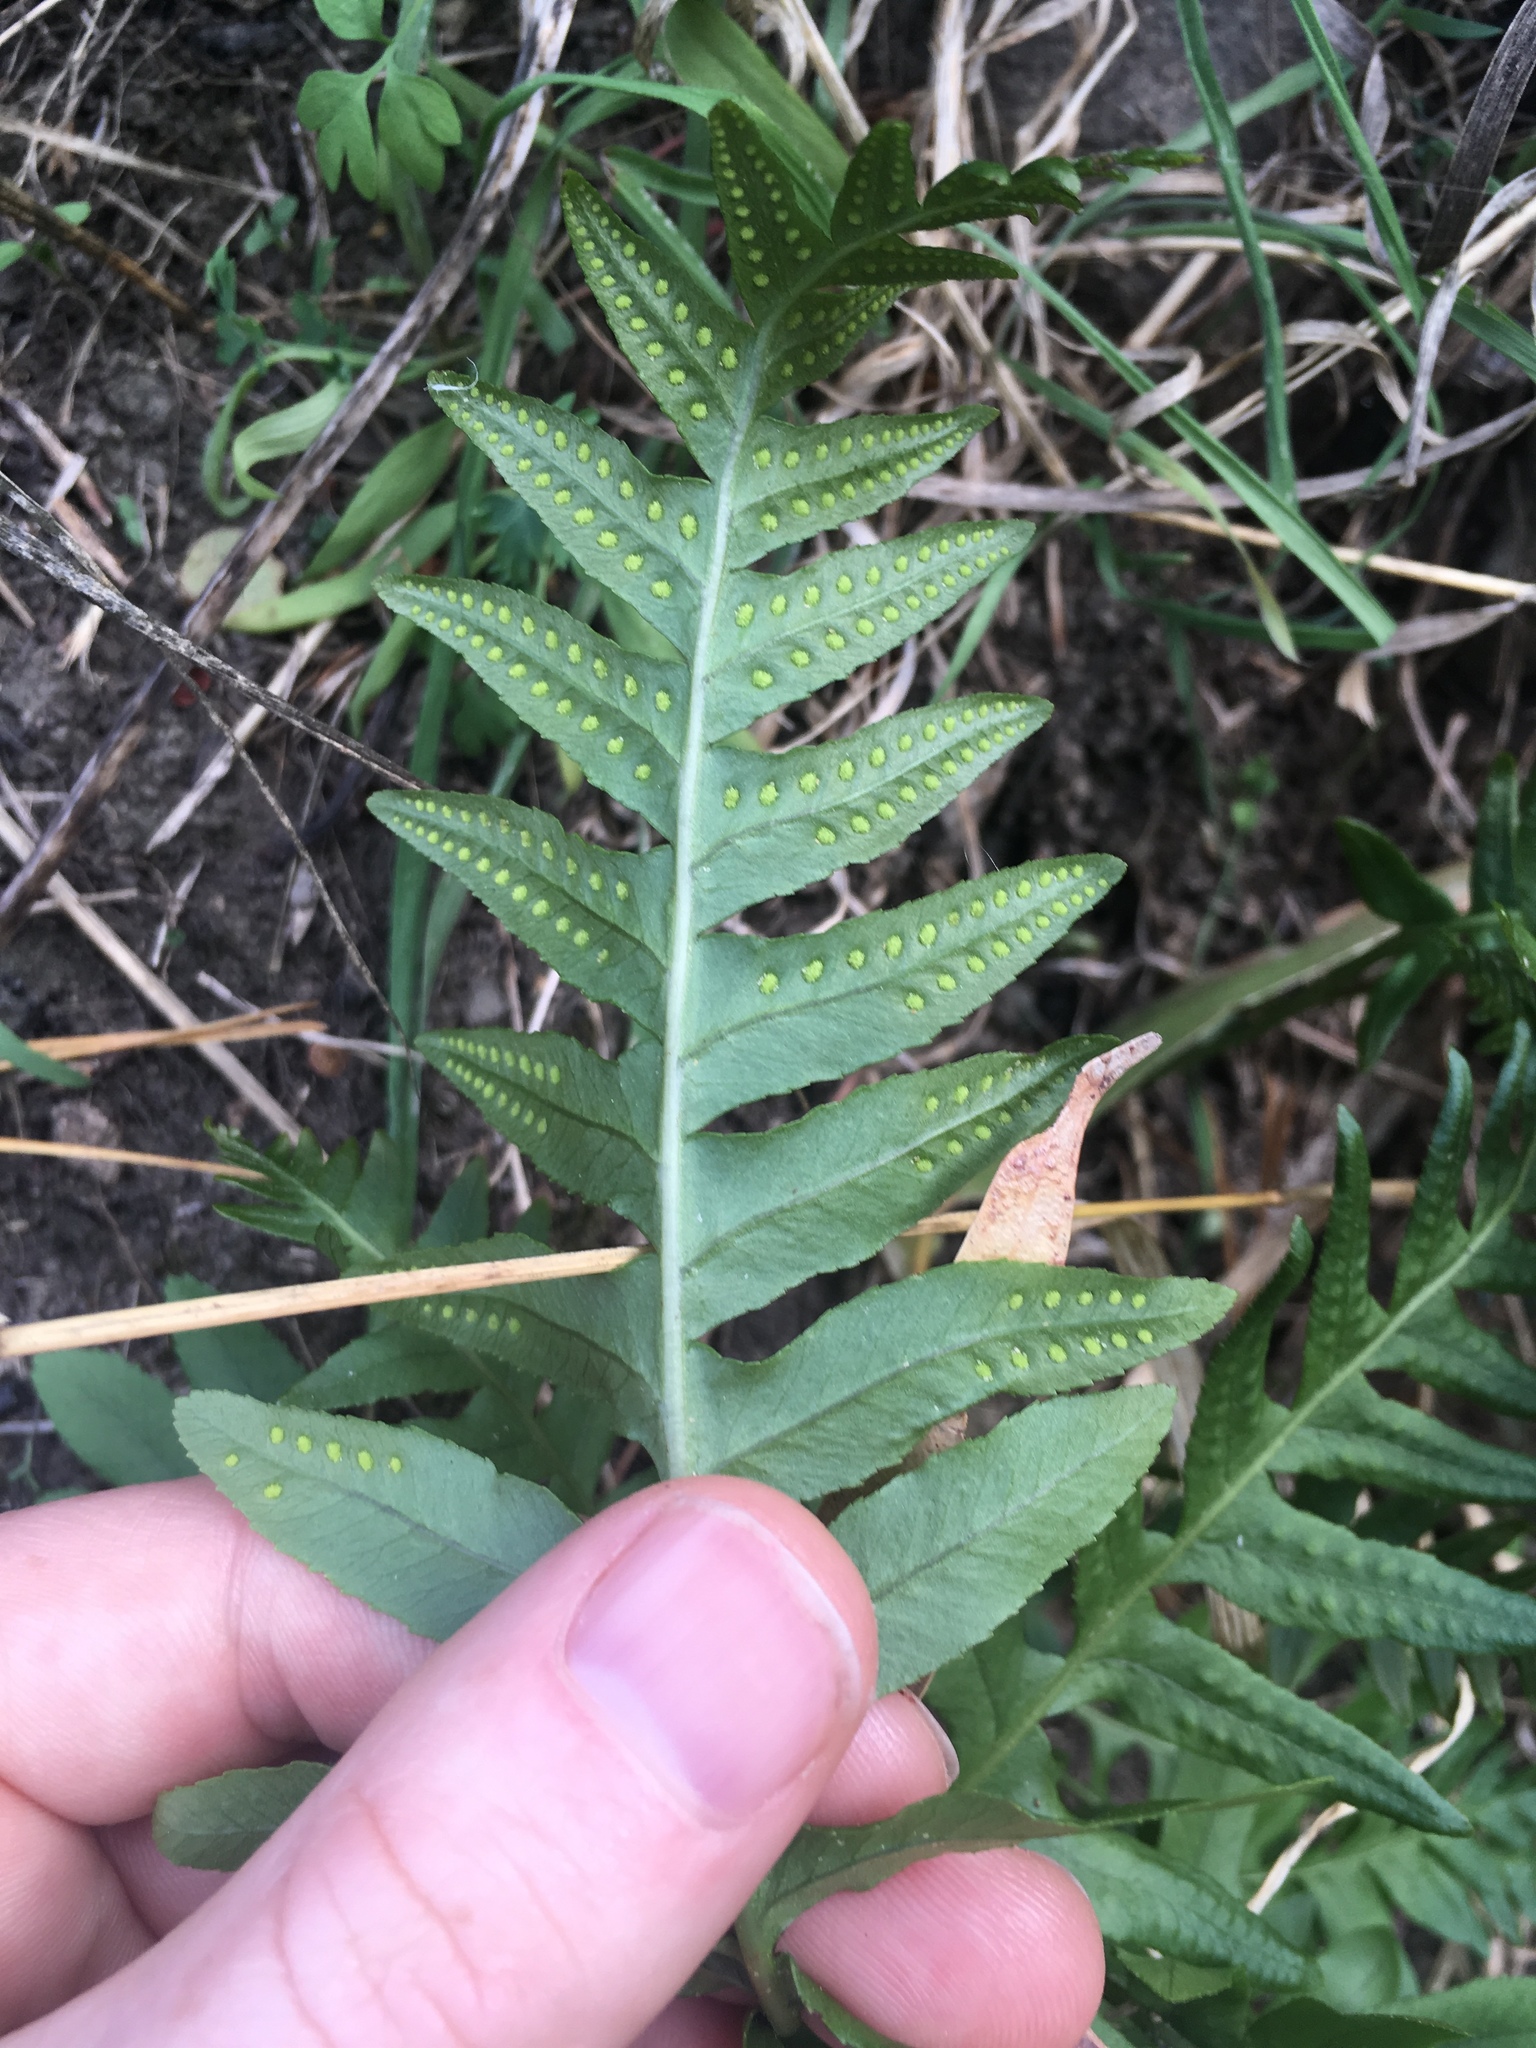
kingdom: Plantae
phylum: Tracheophyta
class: Polypodiopsida
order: Polypodiales
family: Polypodiaceae
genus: Polypodium
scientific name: Polypodium vulgare
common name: Common polypody
